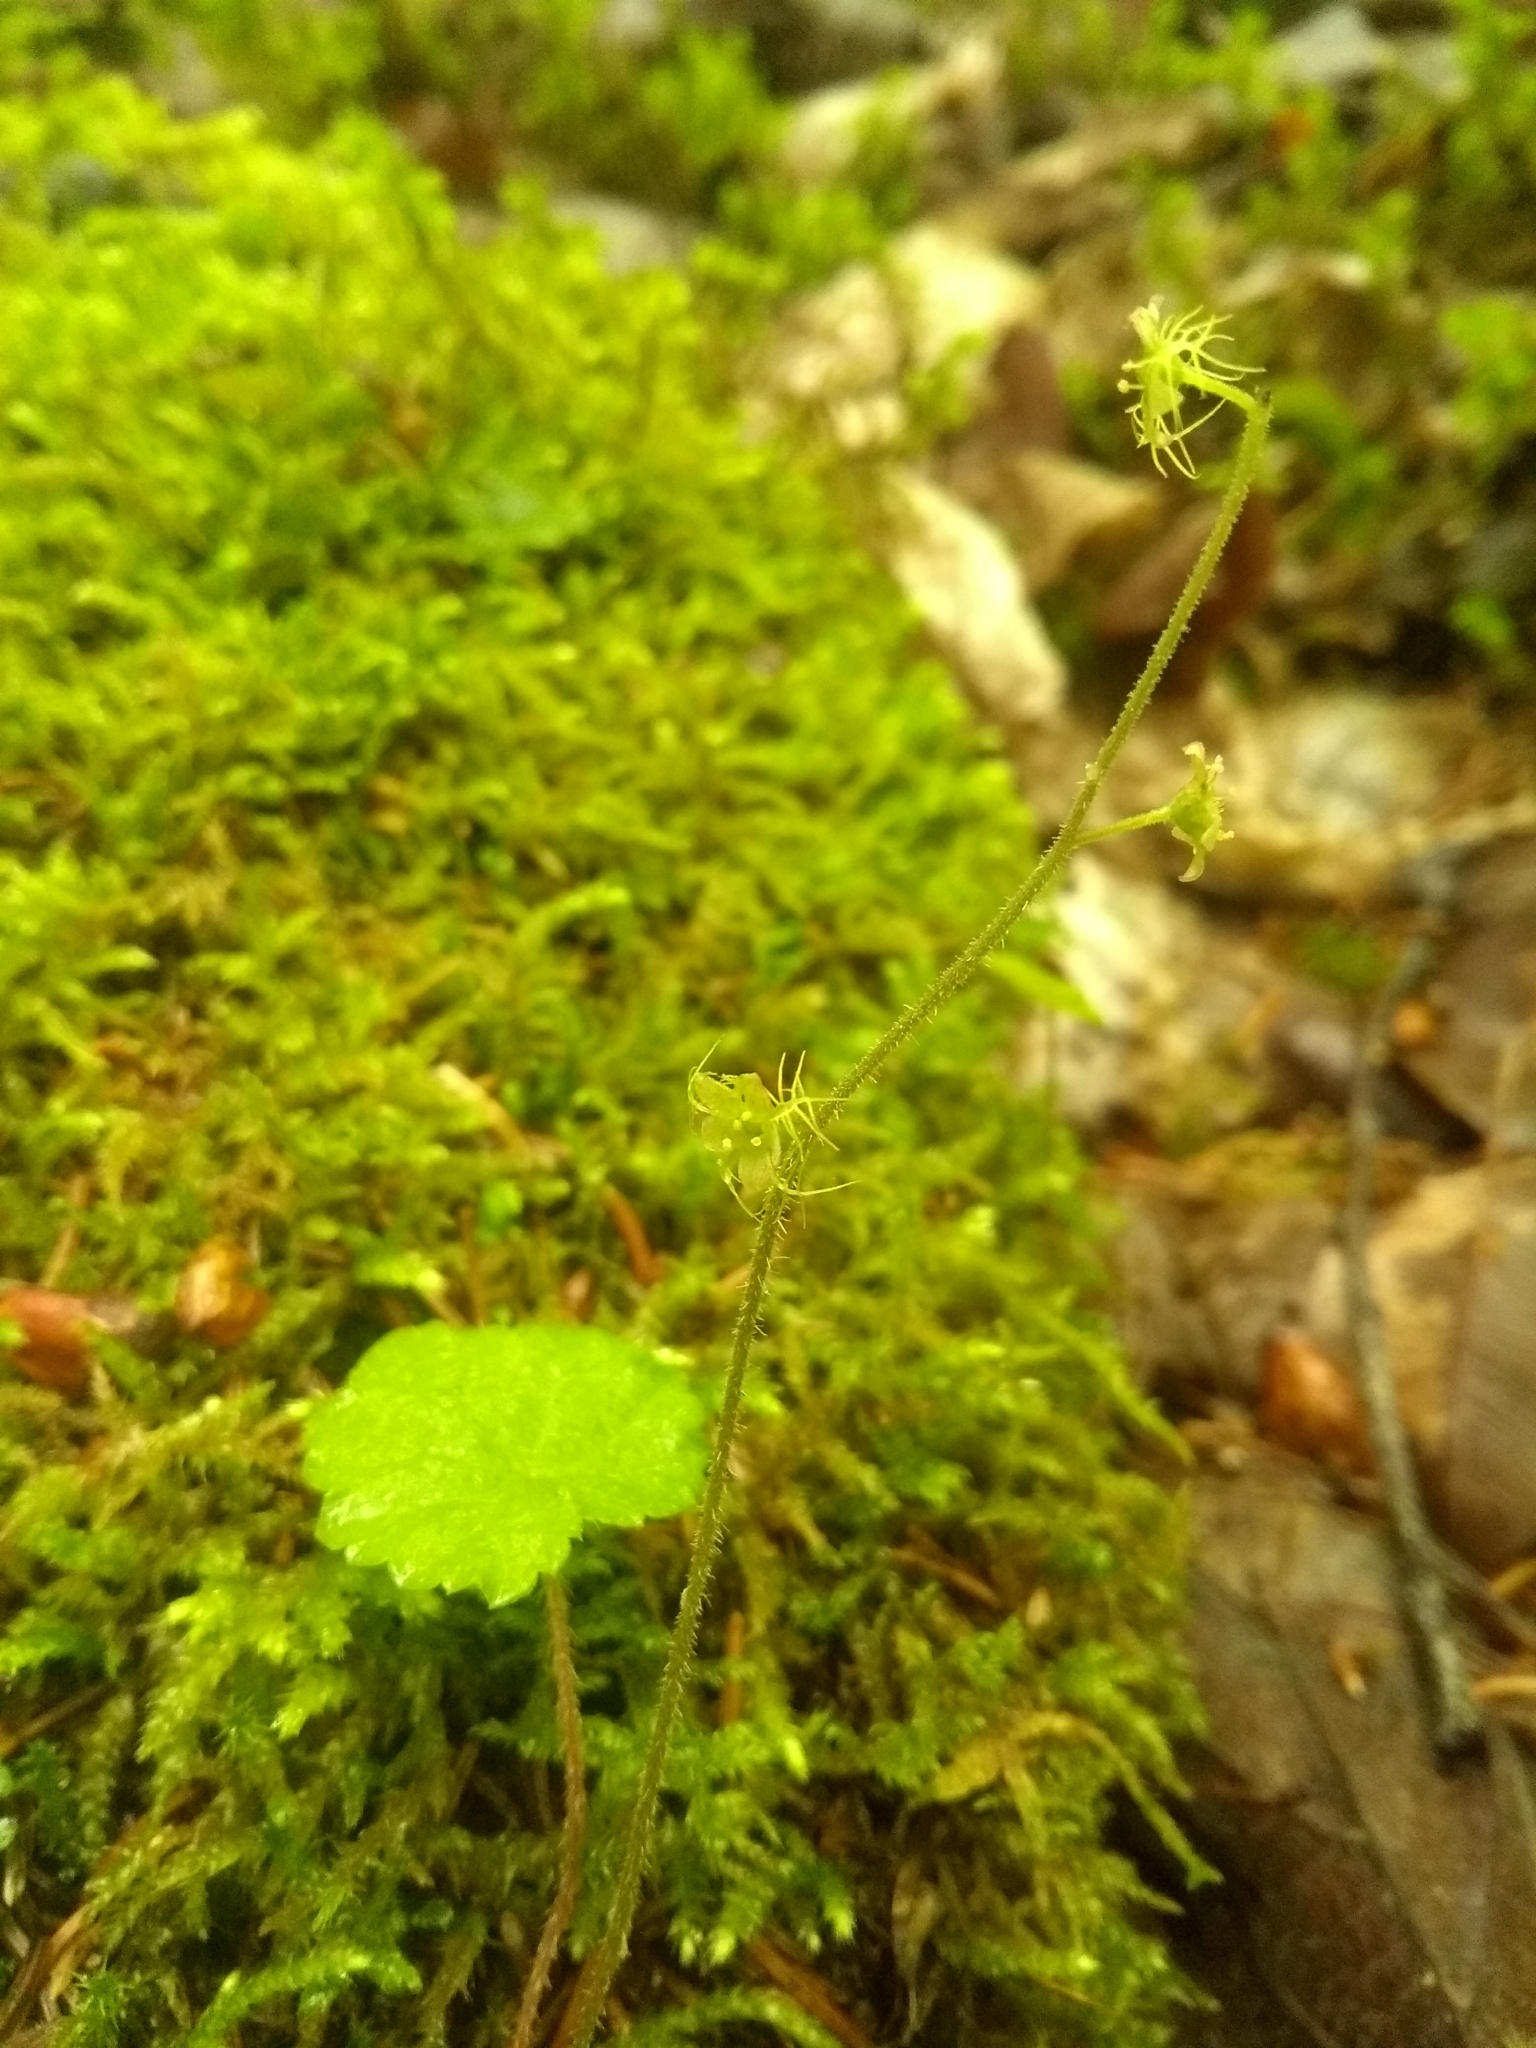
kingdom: Plantae
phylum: Tracheophyta
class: Magnoliopsida
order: Saxifragales
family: Saxifragaceae
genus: Mitella
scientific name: Mitella nuda
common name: Bare-stemmed bishop's-cap
